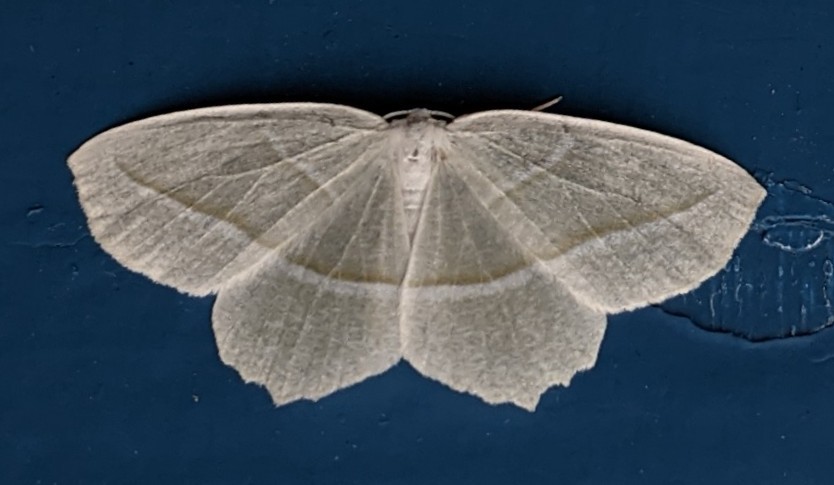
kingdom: Animalia
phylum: Arthropoda
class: Insecta
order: Lepidoptera
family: Geometridae
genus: Campaea
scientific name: Campaea perlata
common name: Fringed looper
